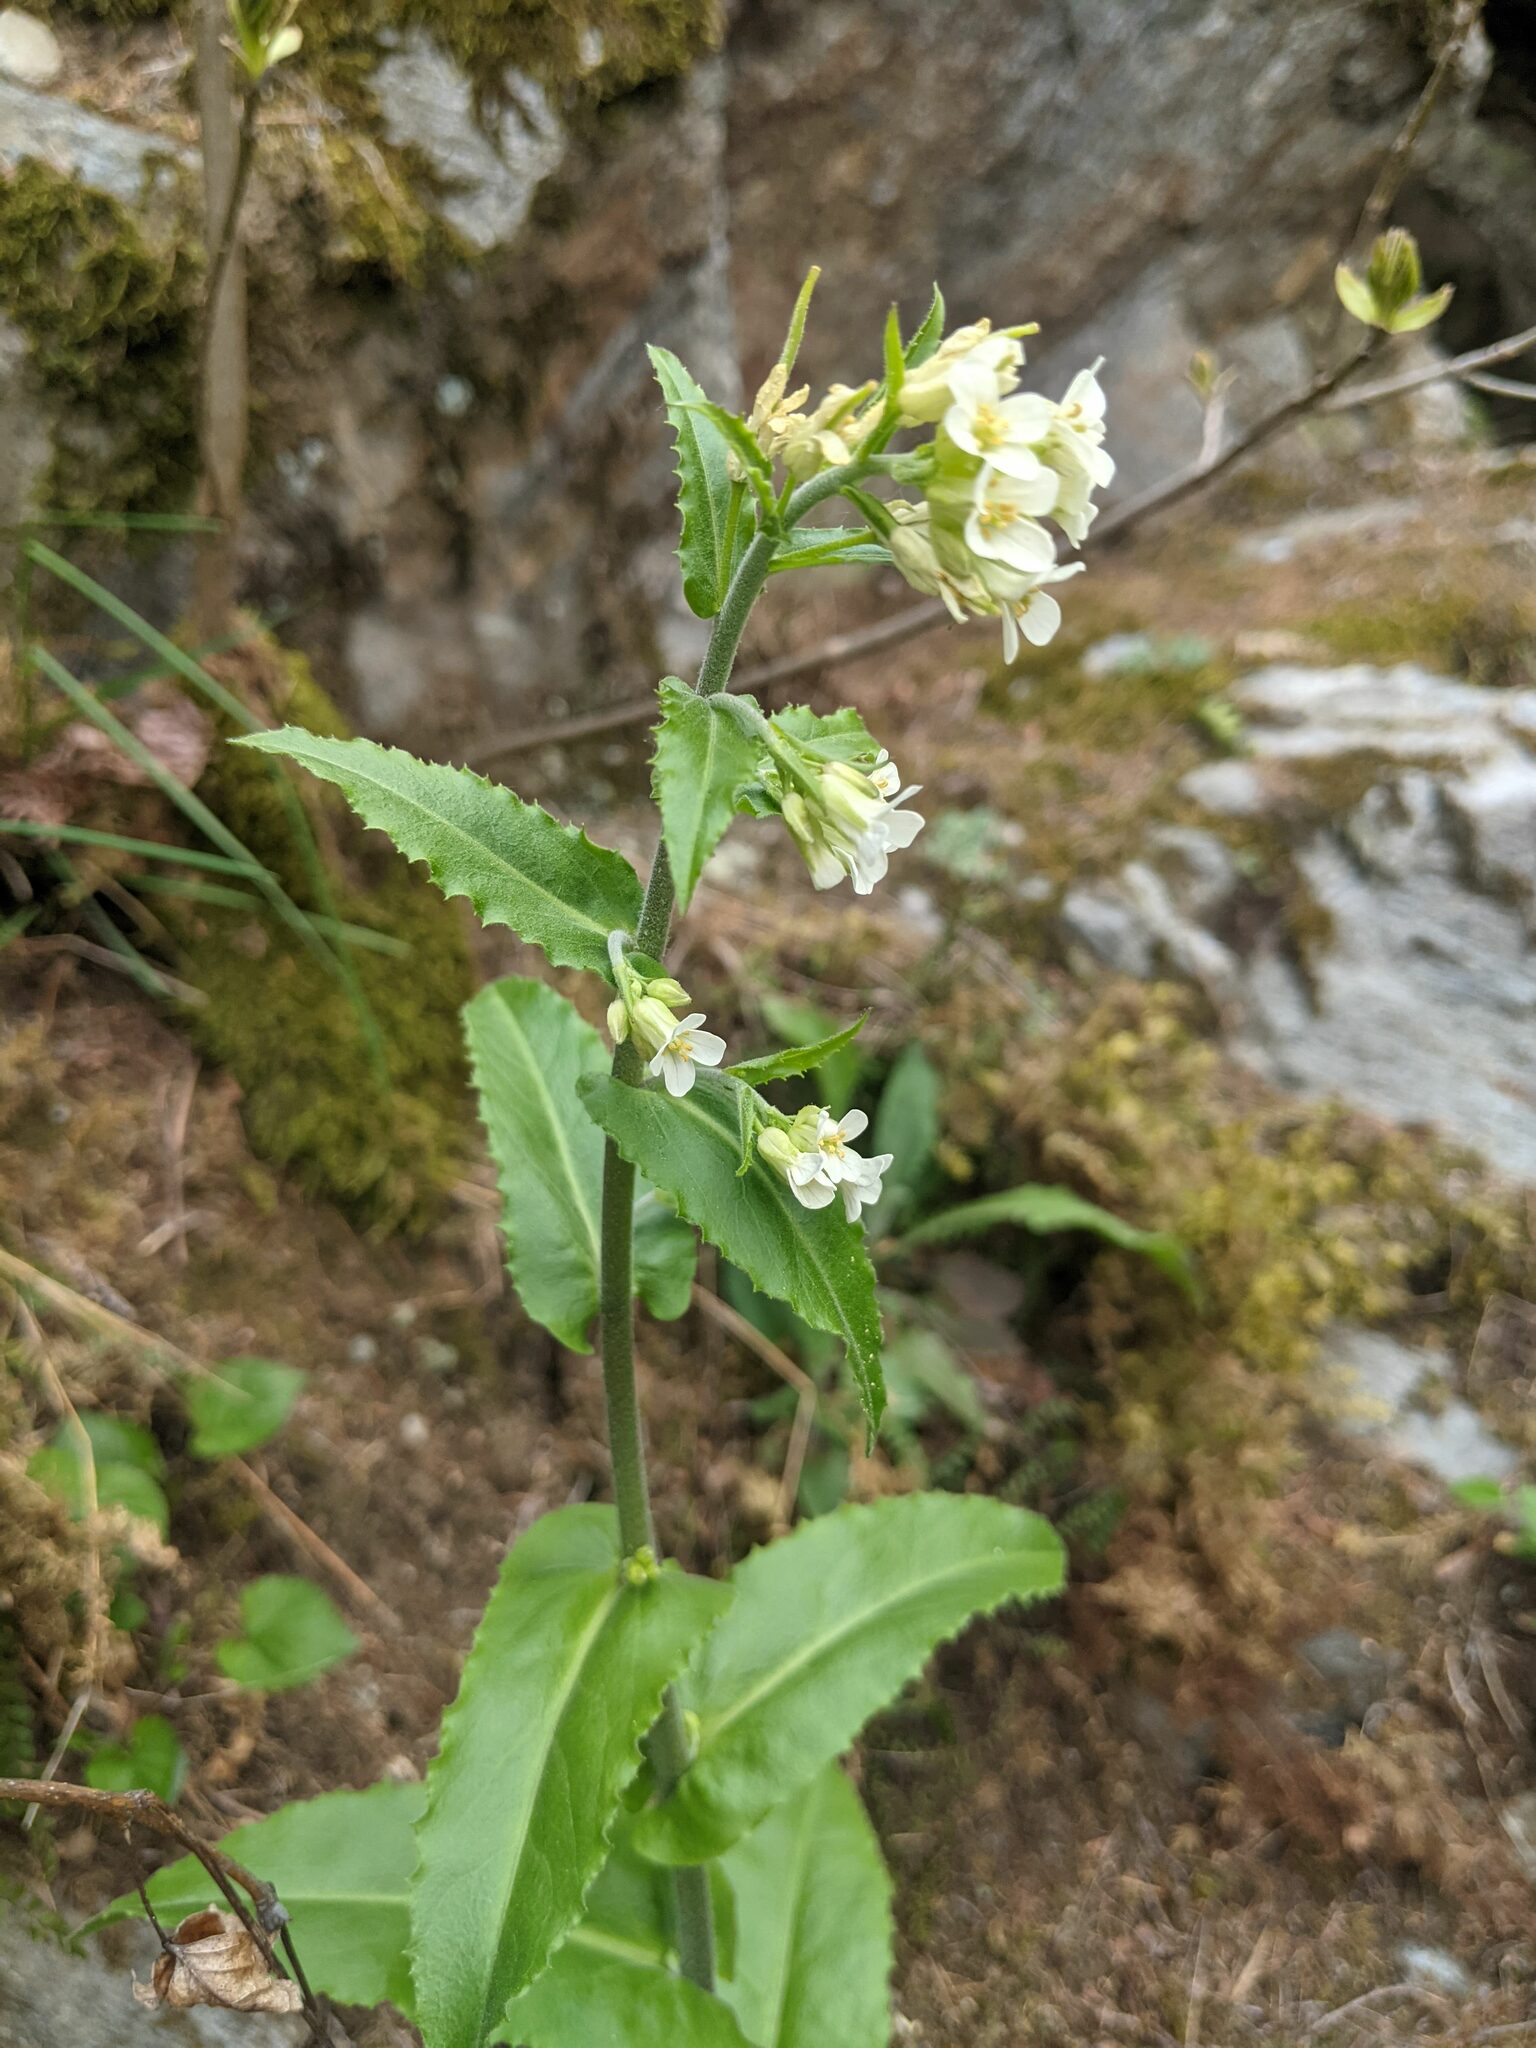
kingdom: Plantae
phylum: Tracheophyta
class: Magnoliopsida
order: Brassicales
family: Brassicaceae
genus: Pseudoturritis
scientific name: Pseudoturritis turrita
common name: Tower cress
